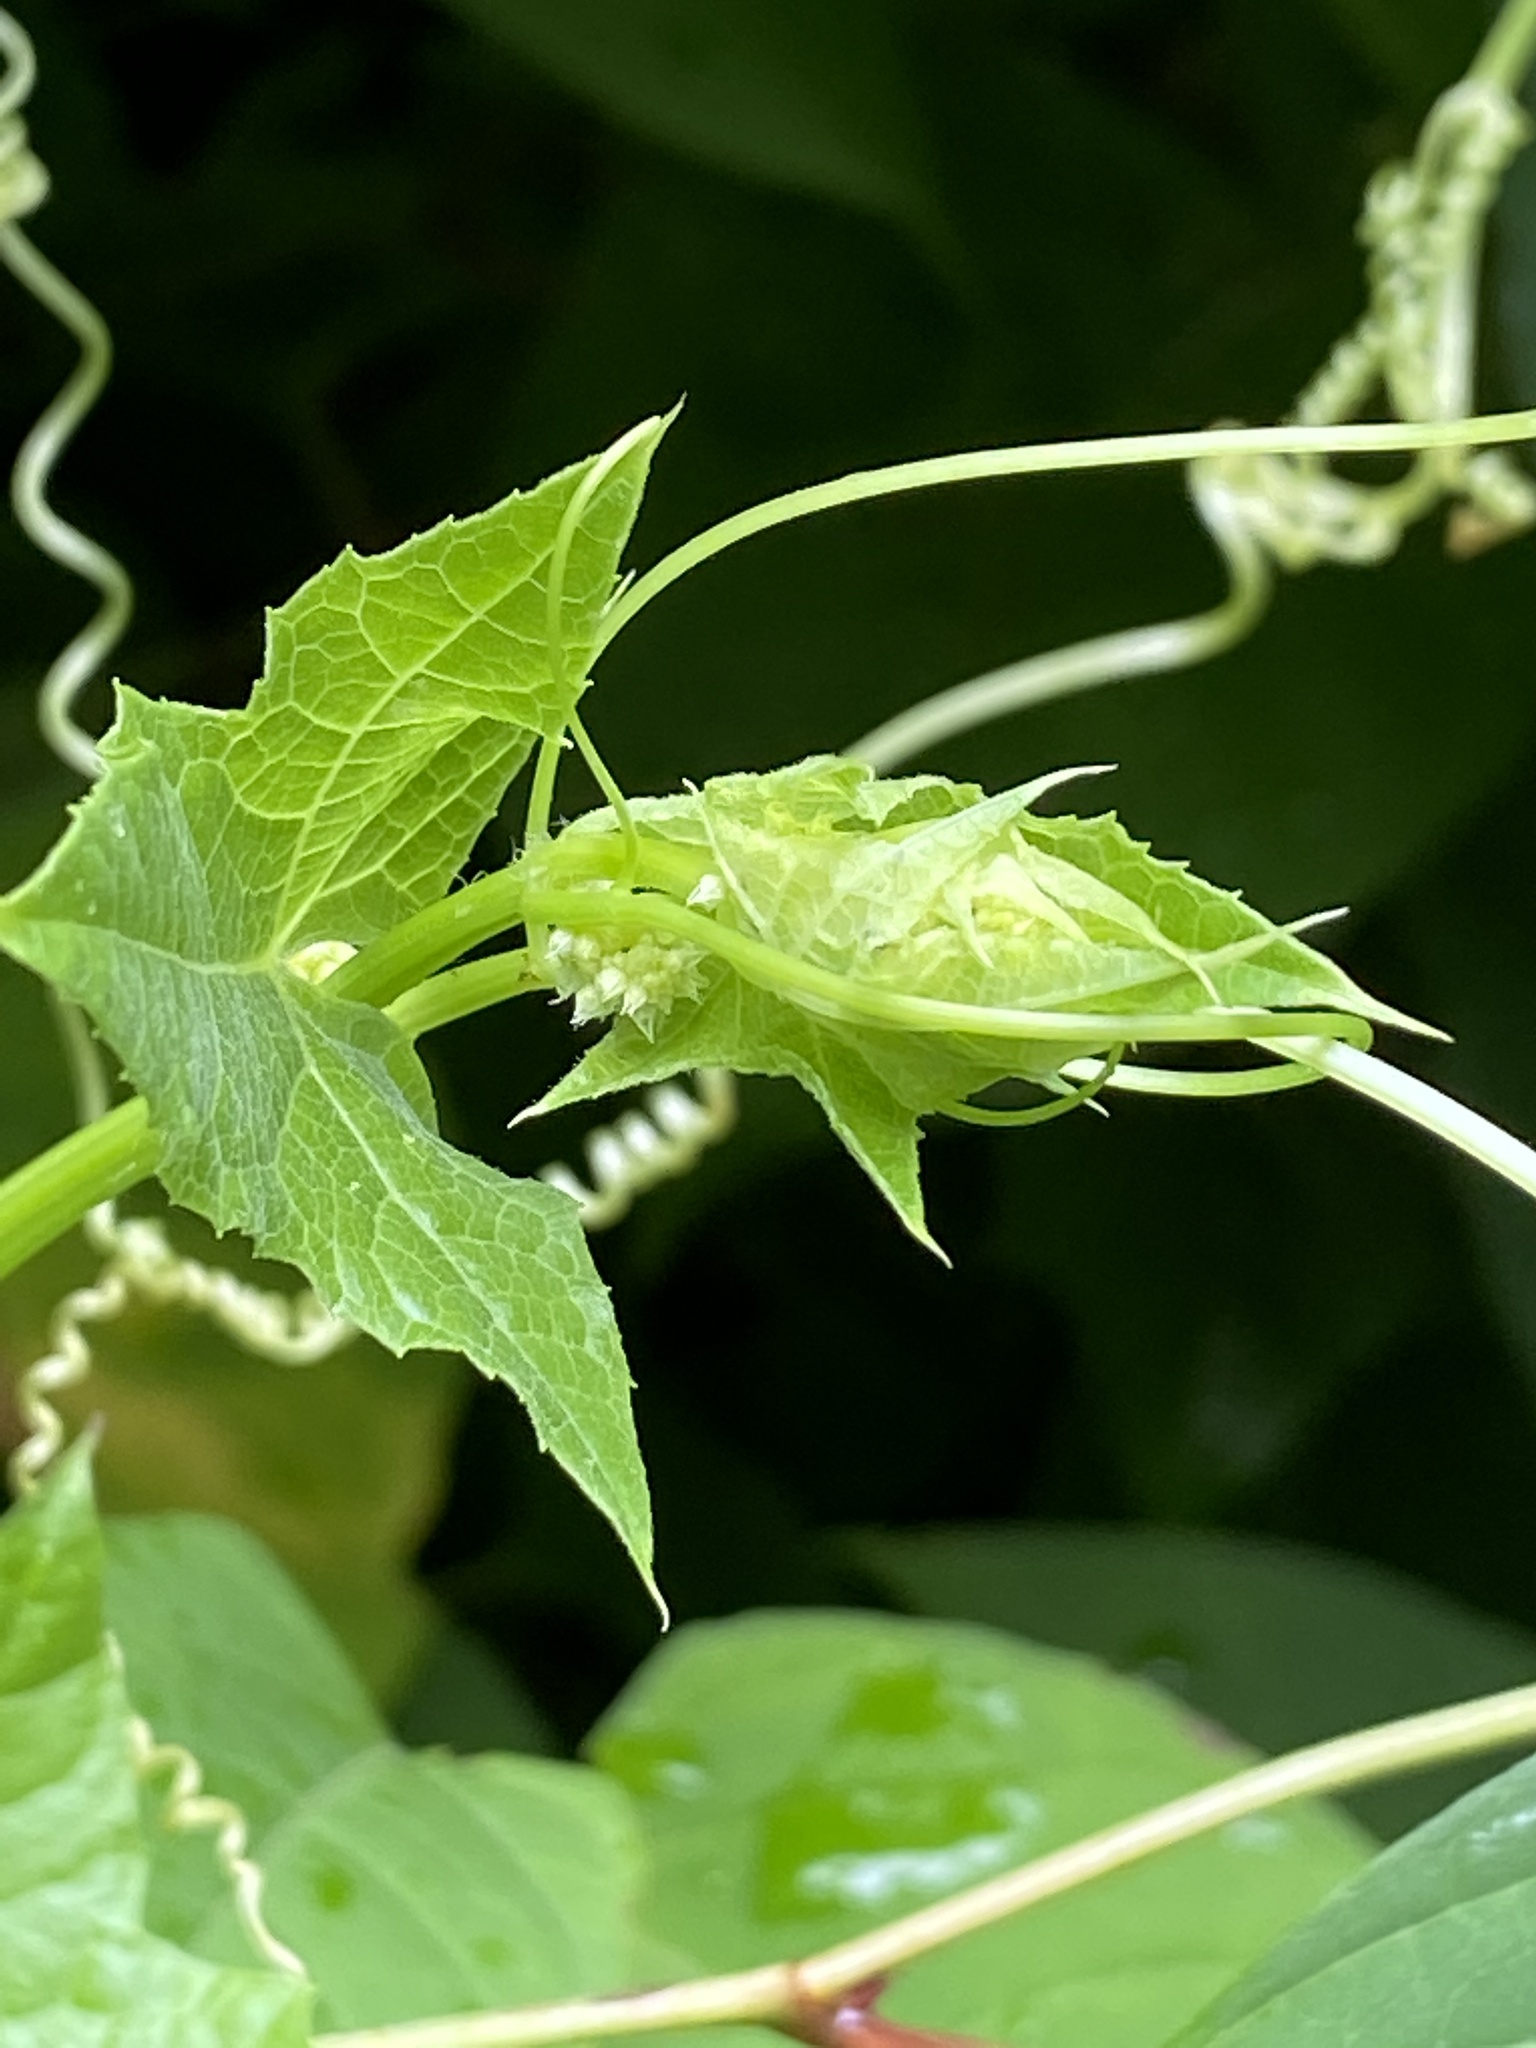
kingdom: Plantae
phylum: Tracheophyta
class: Magnoliopsida
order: Cucurbitales
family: Cucurbitaceae
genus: Echinocystis
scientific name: Echinocystis lobata
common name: Wild cucumber
